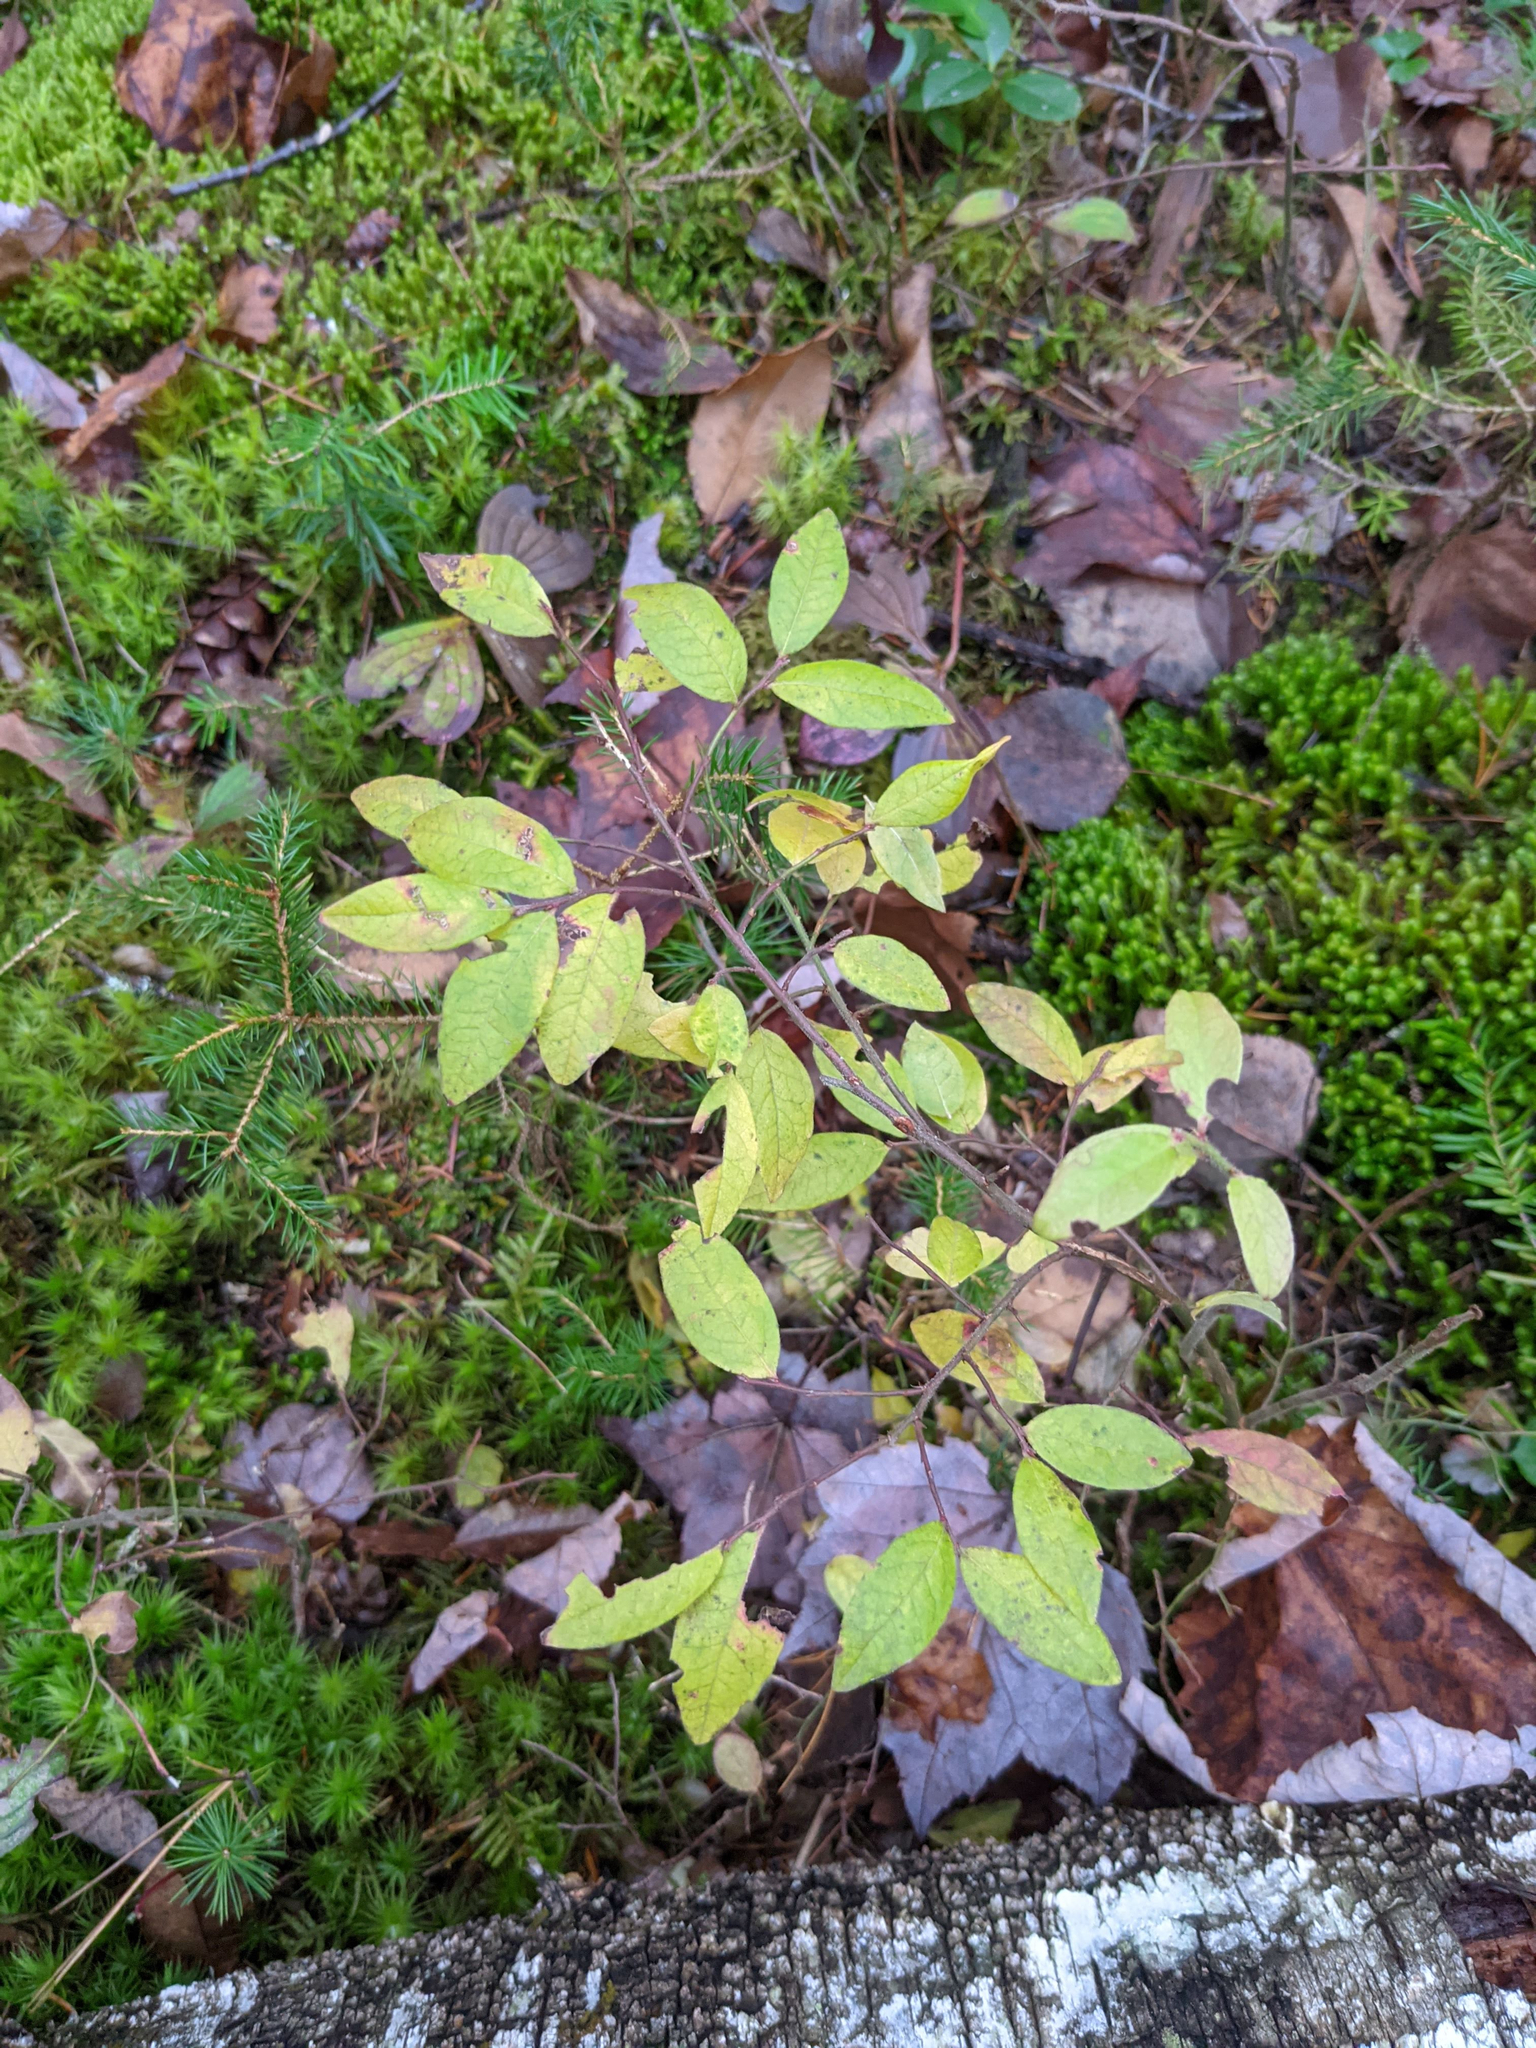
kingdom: Plantae
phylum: Tracheophyta
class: Magnoliopsida
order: Ericales
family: Ericaceae
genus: Vaccinium
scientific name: Vaccinium myrtilloides
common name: Canada blueberry
